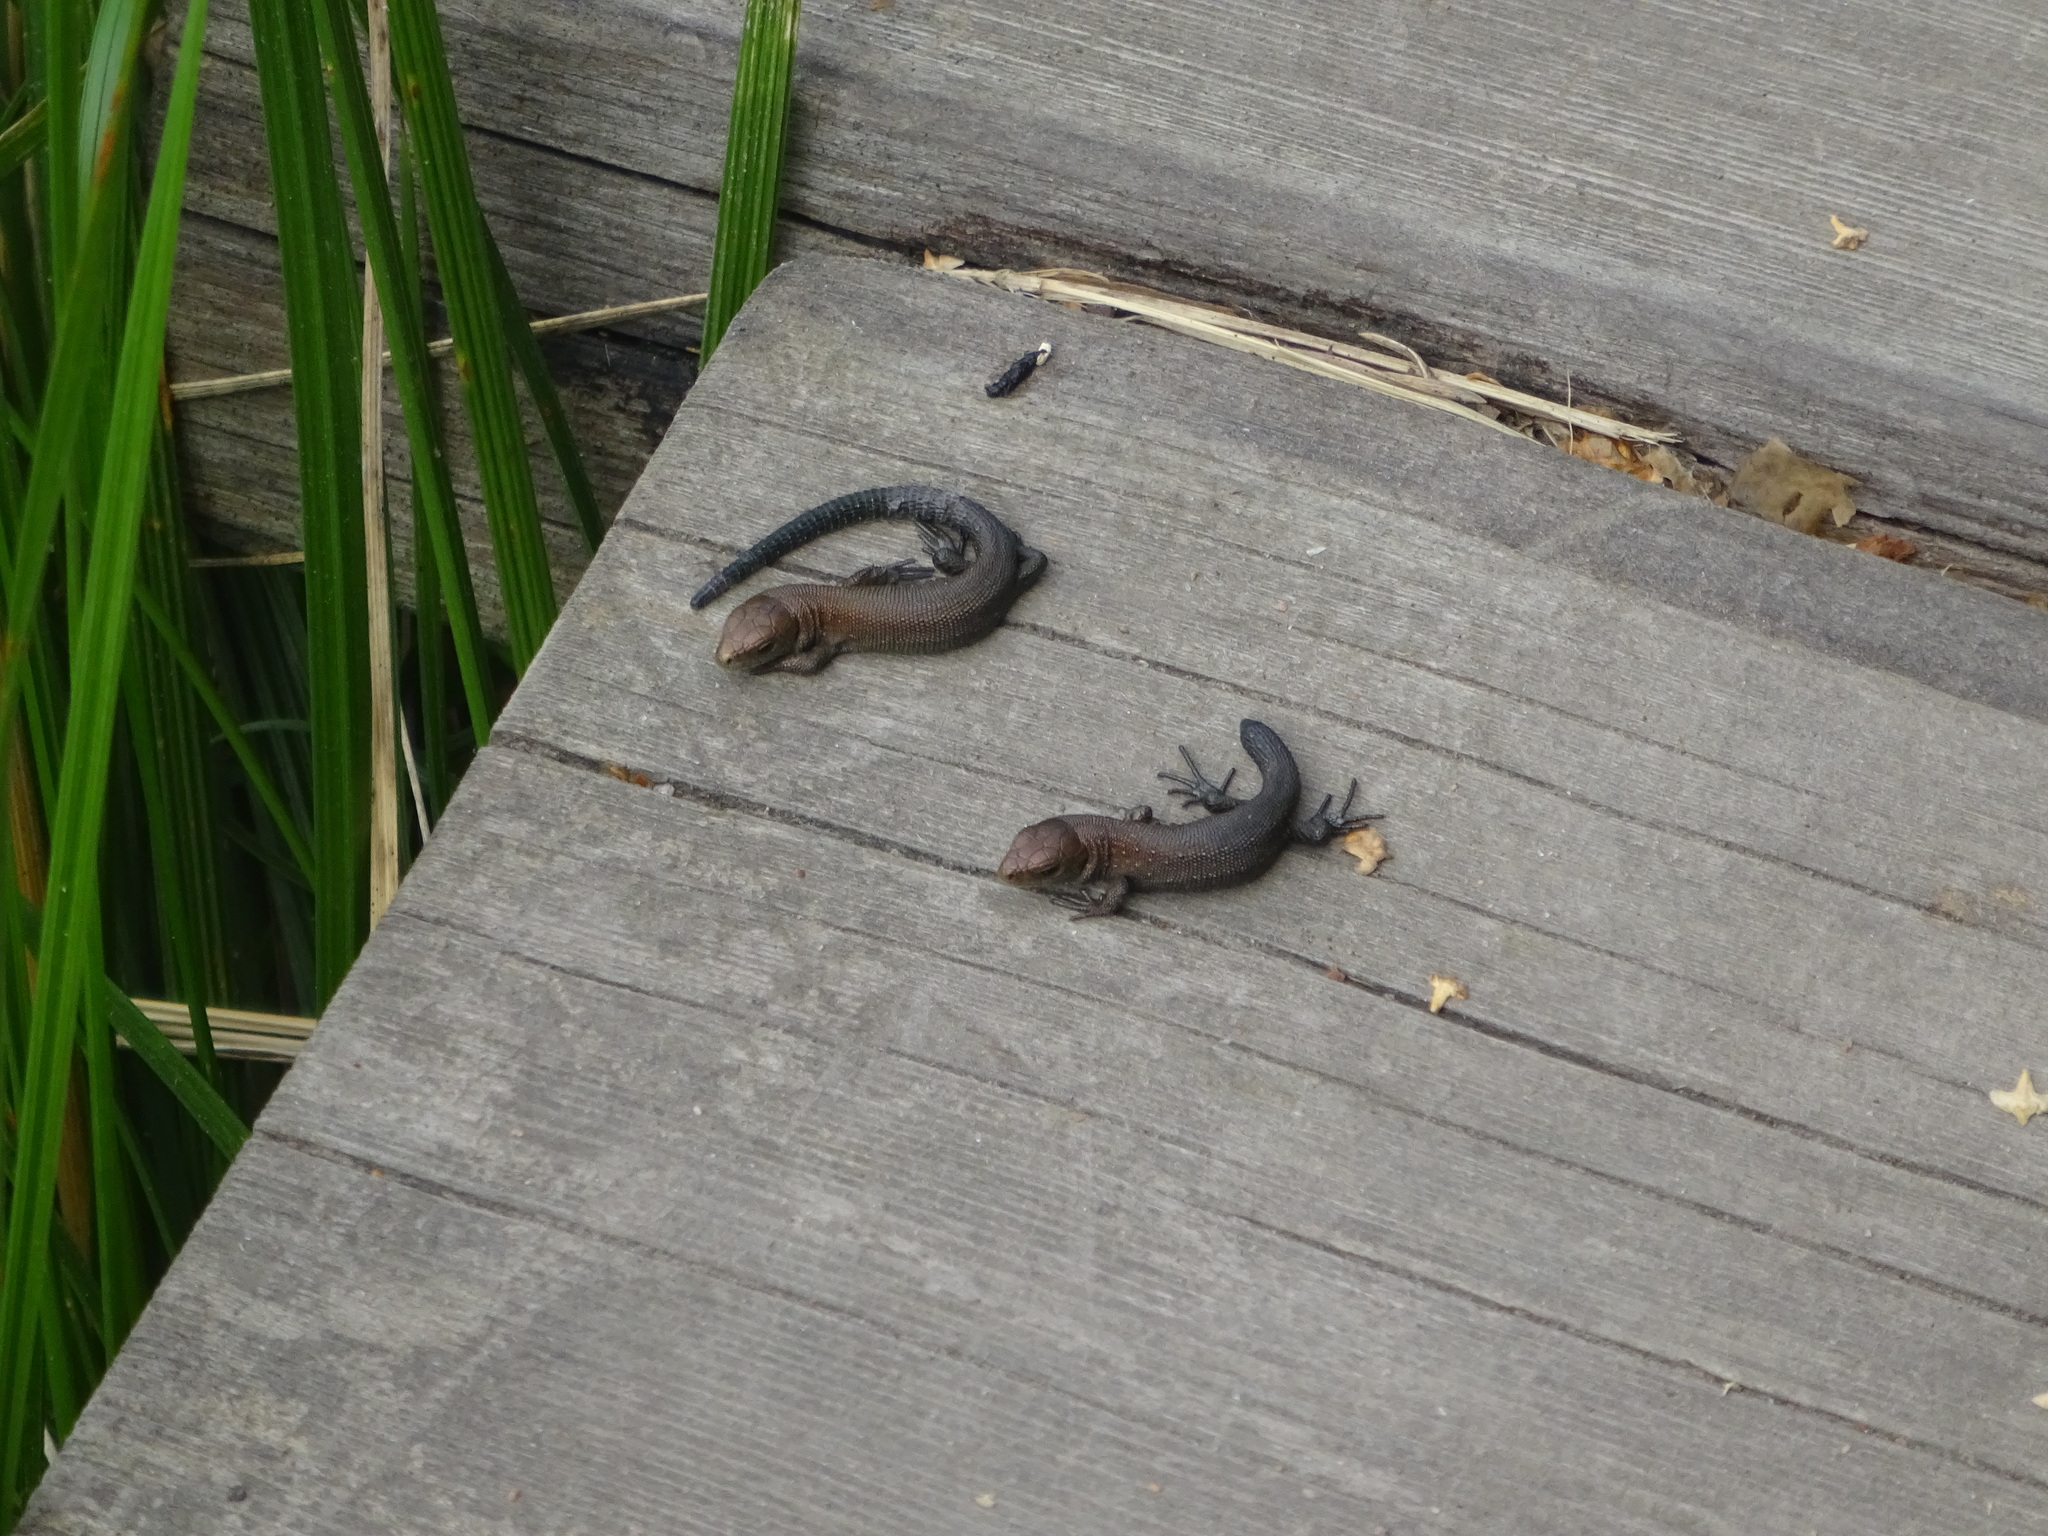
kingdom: Animalia
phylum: Chordata
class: Squamata
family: Lacertidae
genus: Zootoca
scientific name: Zootoca vivipara
